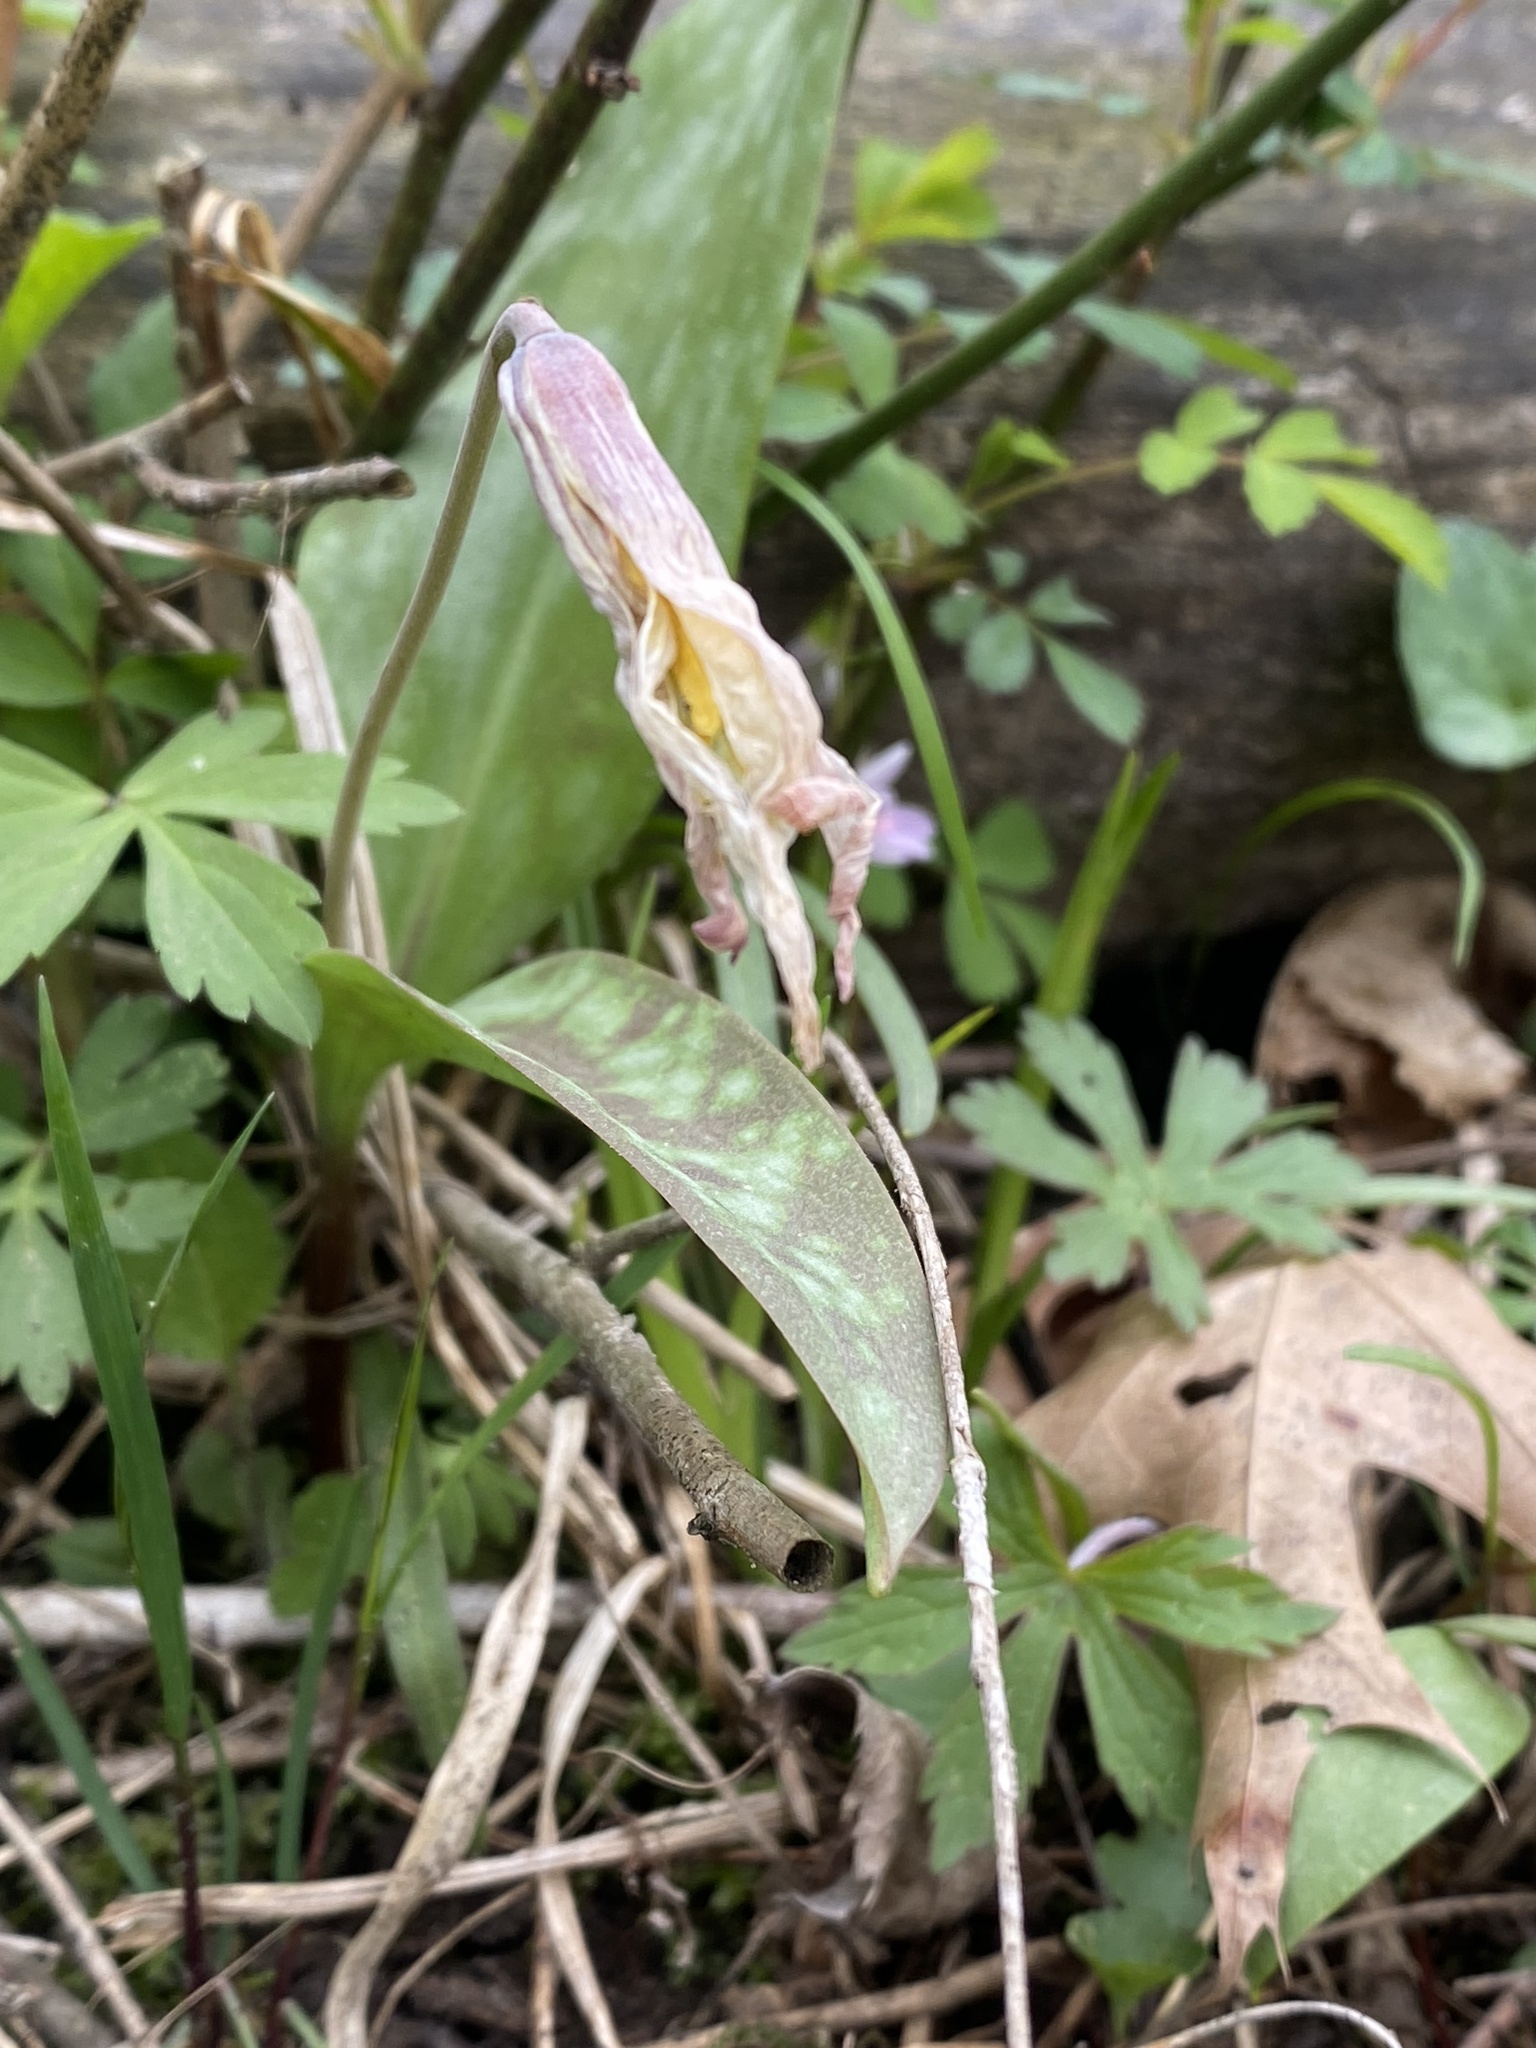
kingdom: Plantae
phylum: Tracheophyta
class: Liliopsida
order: Liliales
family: Liliaceae
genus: Erythronium
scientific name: Erythronium albidum
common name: White trout-lily
